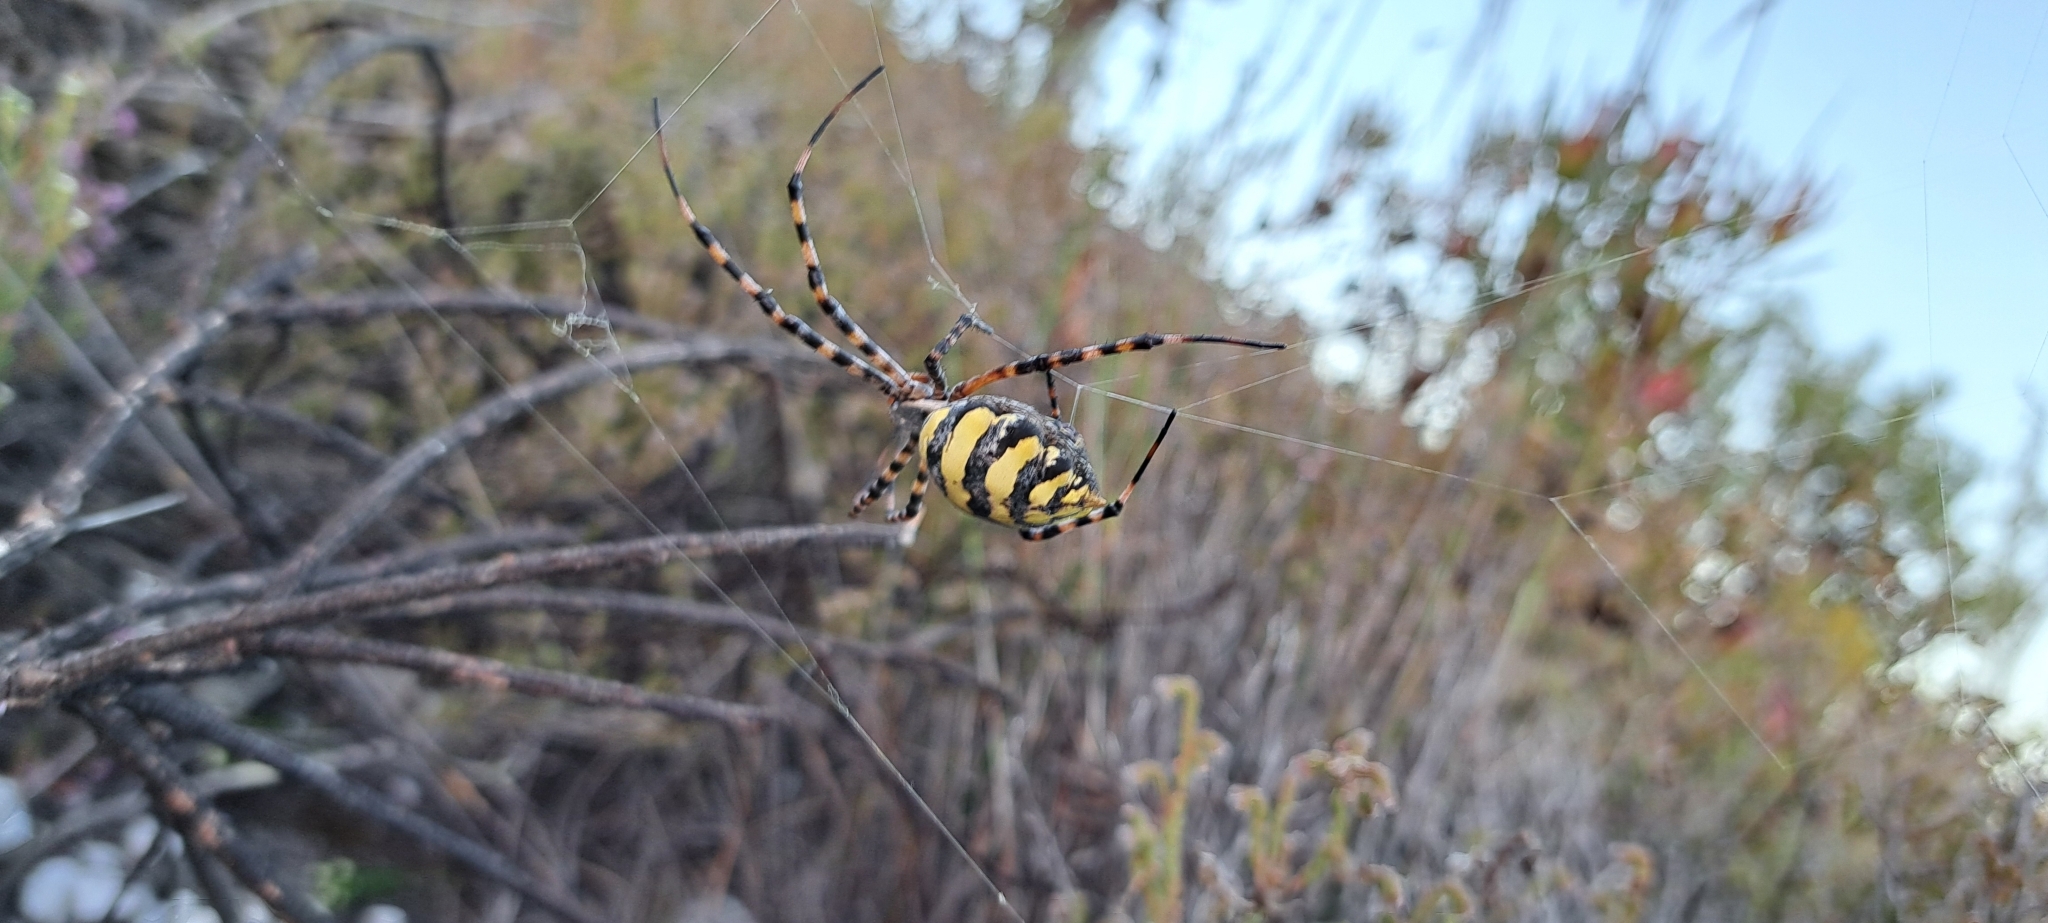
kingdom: Animalia
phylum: Arthropoda
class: Arachnida
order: Araneae
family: Araneidae
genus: Argiope
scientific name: Argiope australis
